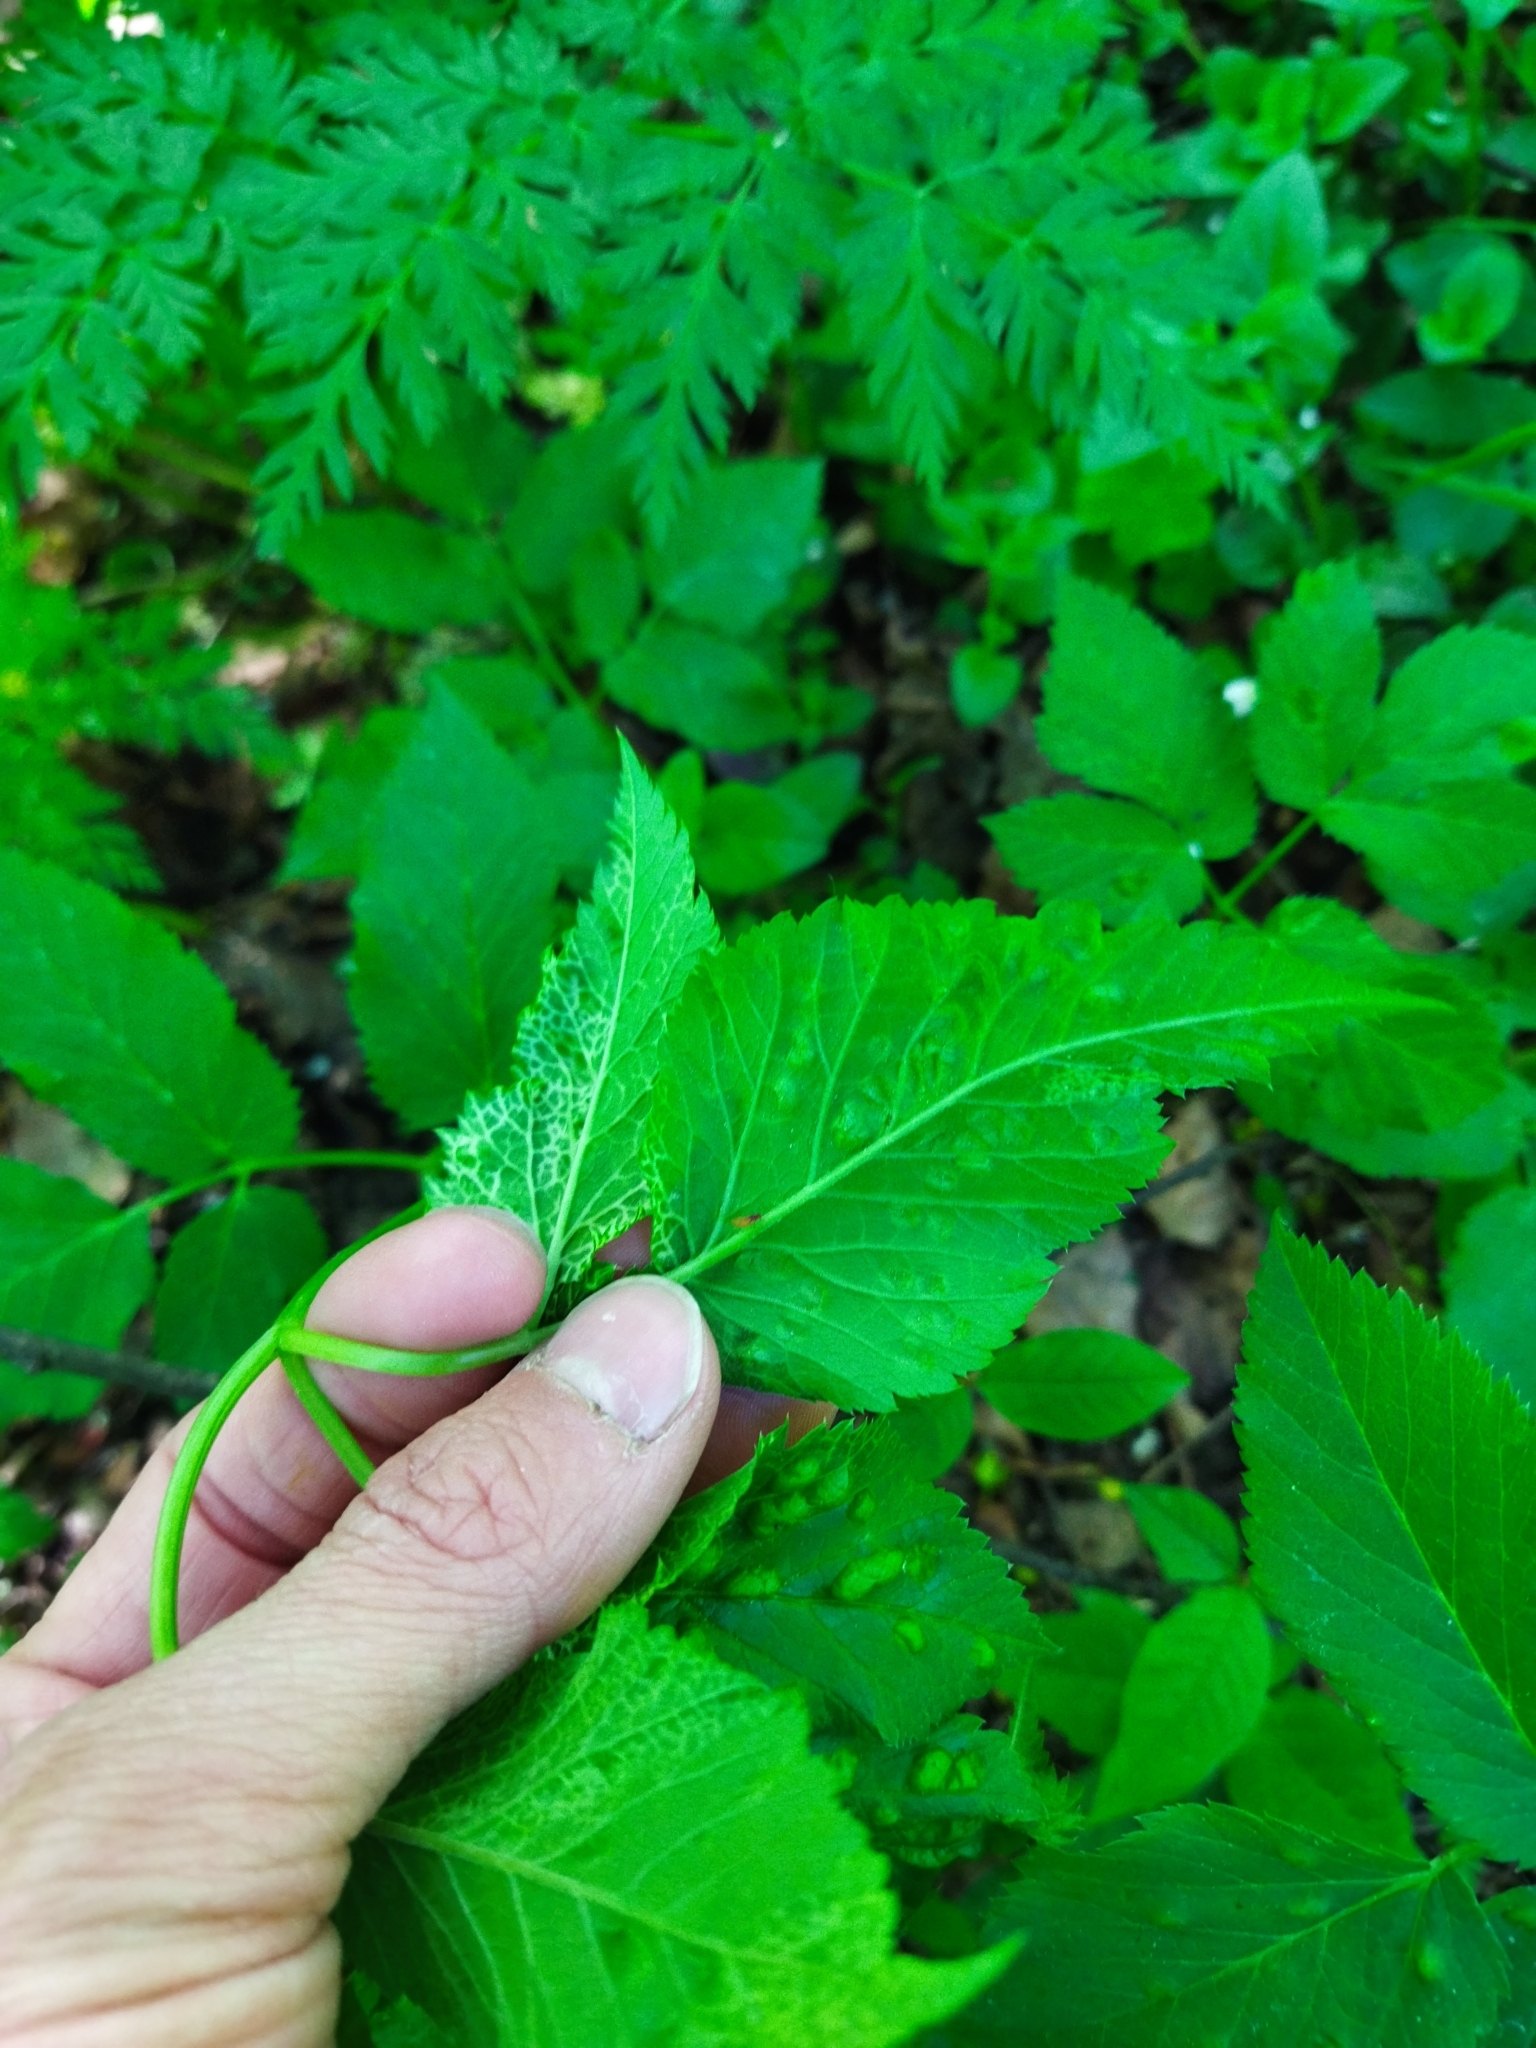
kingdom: Animalia
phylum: Arthropoda
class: Insecta
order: Hemiptera
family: Triozidae
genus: Trioza
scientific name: Trioza flavipennis
